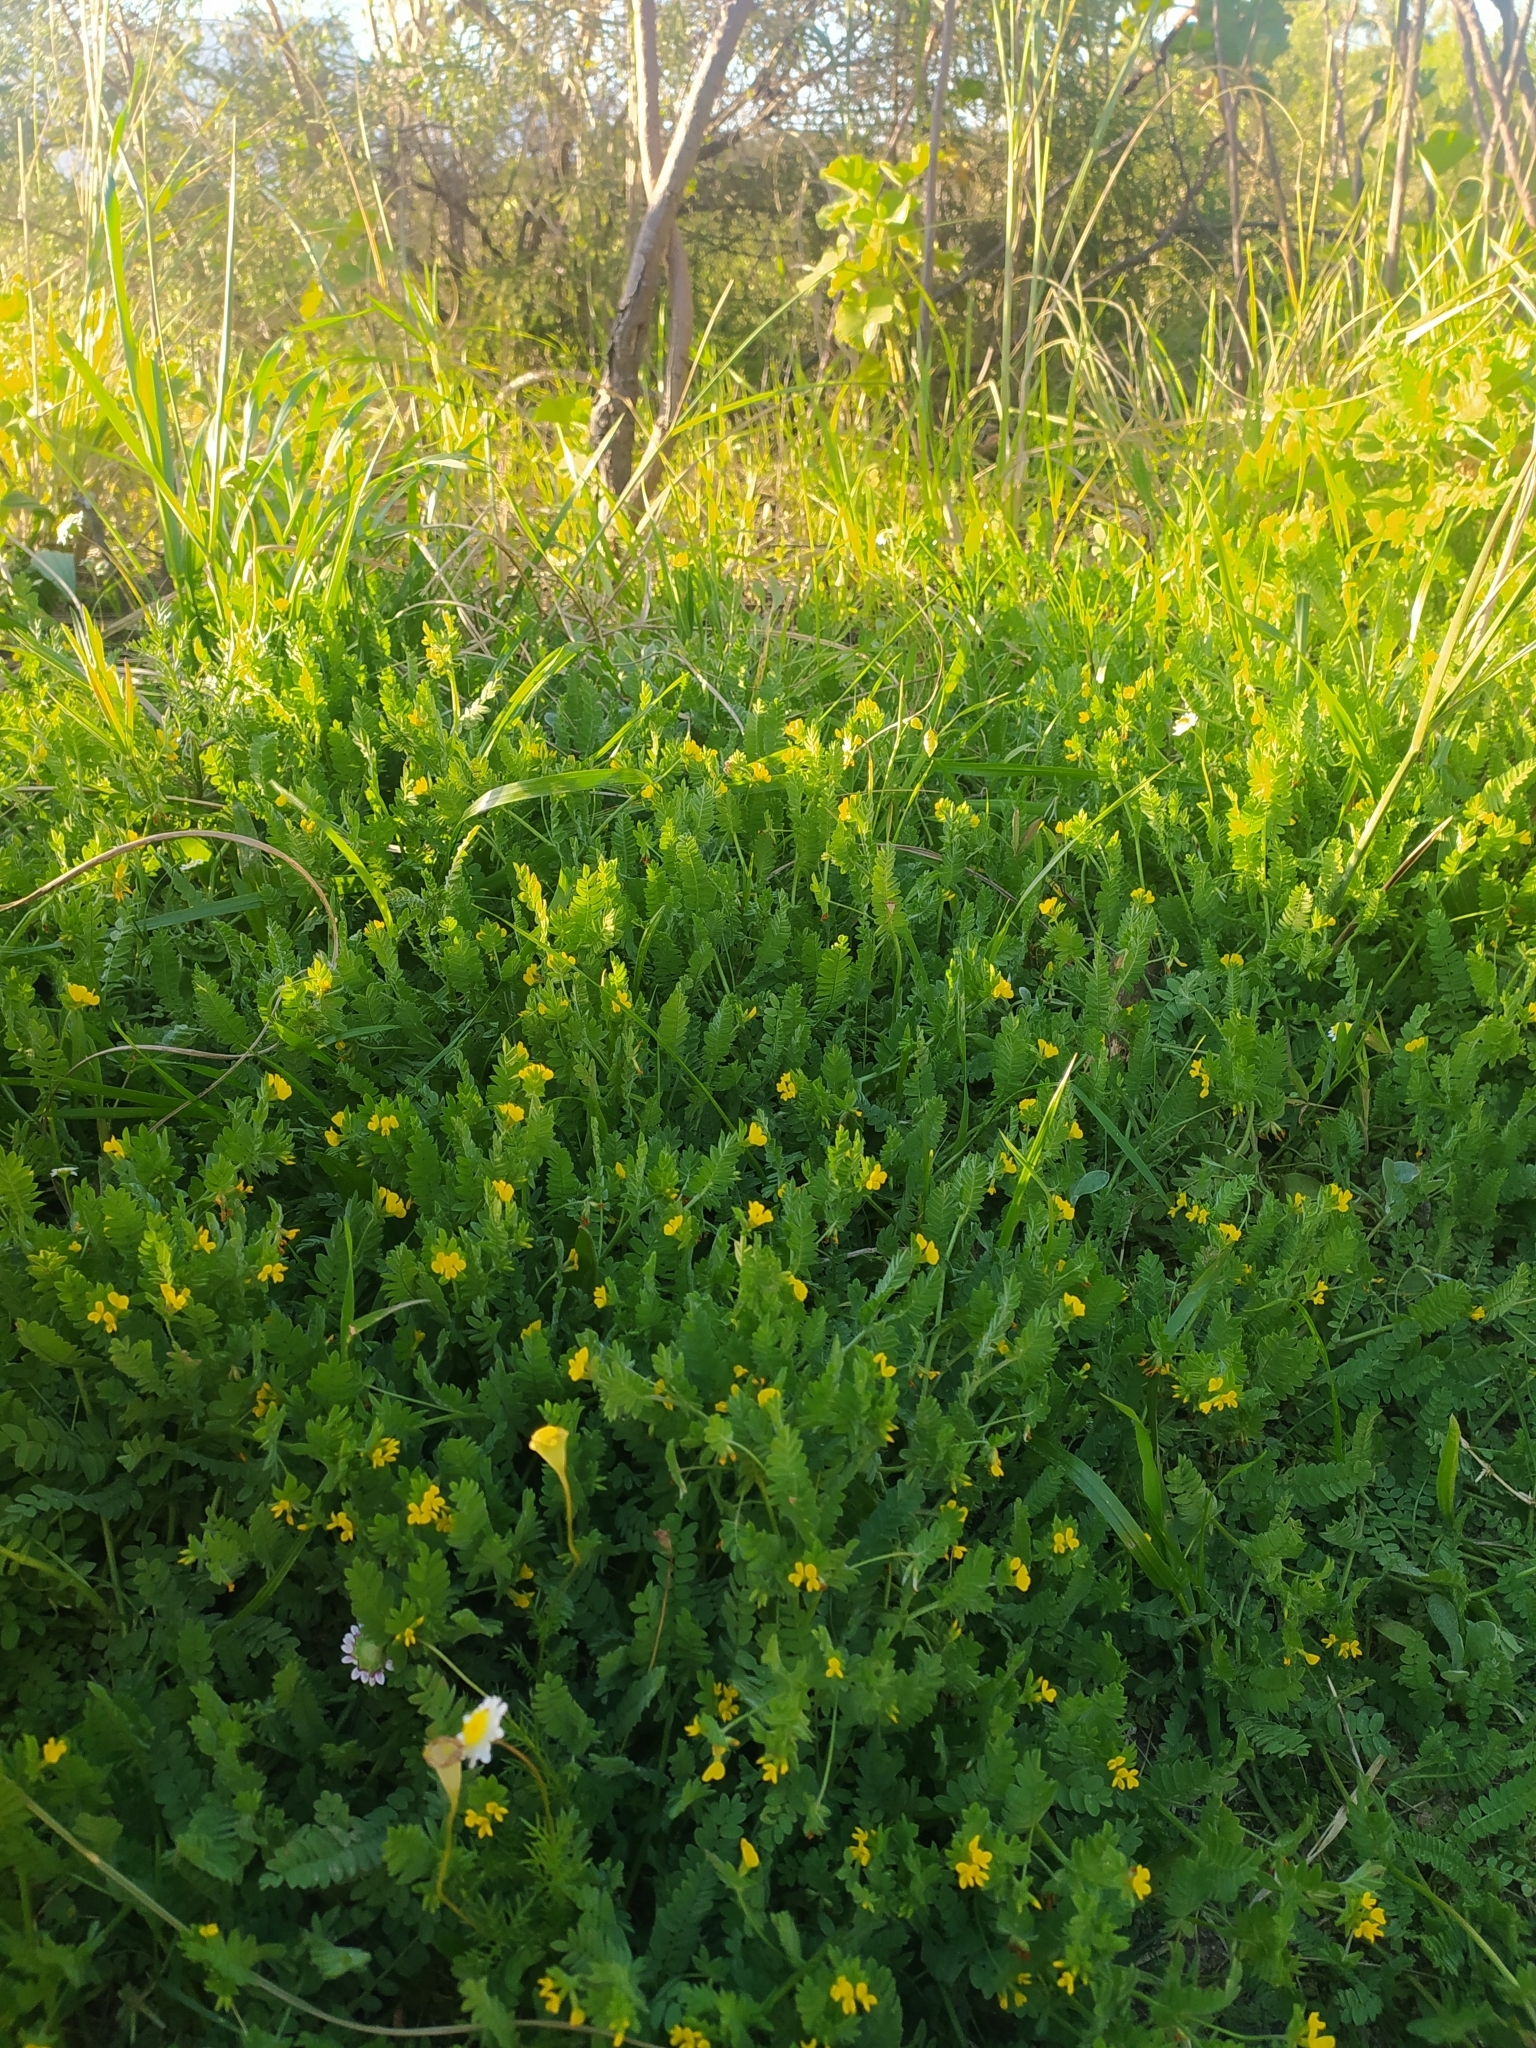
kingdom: Plantae
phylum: Tracheophyta
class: Magnoliopsida
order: Fabales
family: Fabaceae
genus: Ornithopus
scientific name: Ornithopus compressus
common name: Yellow serradella
